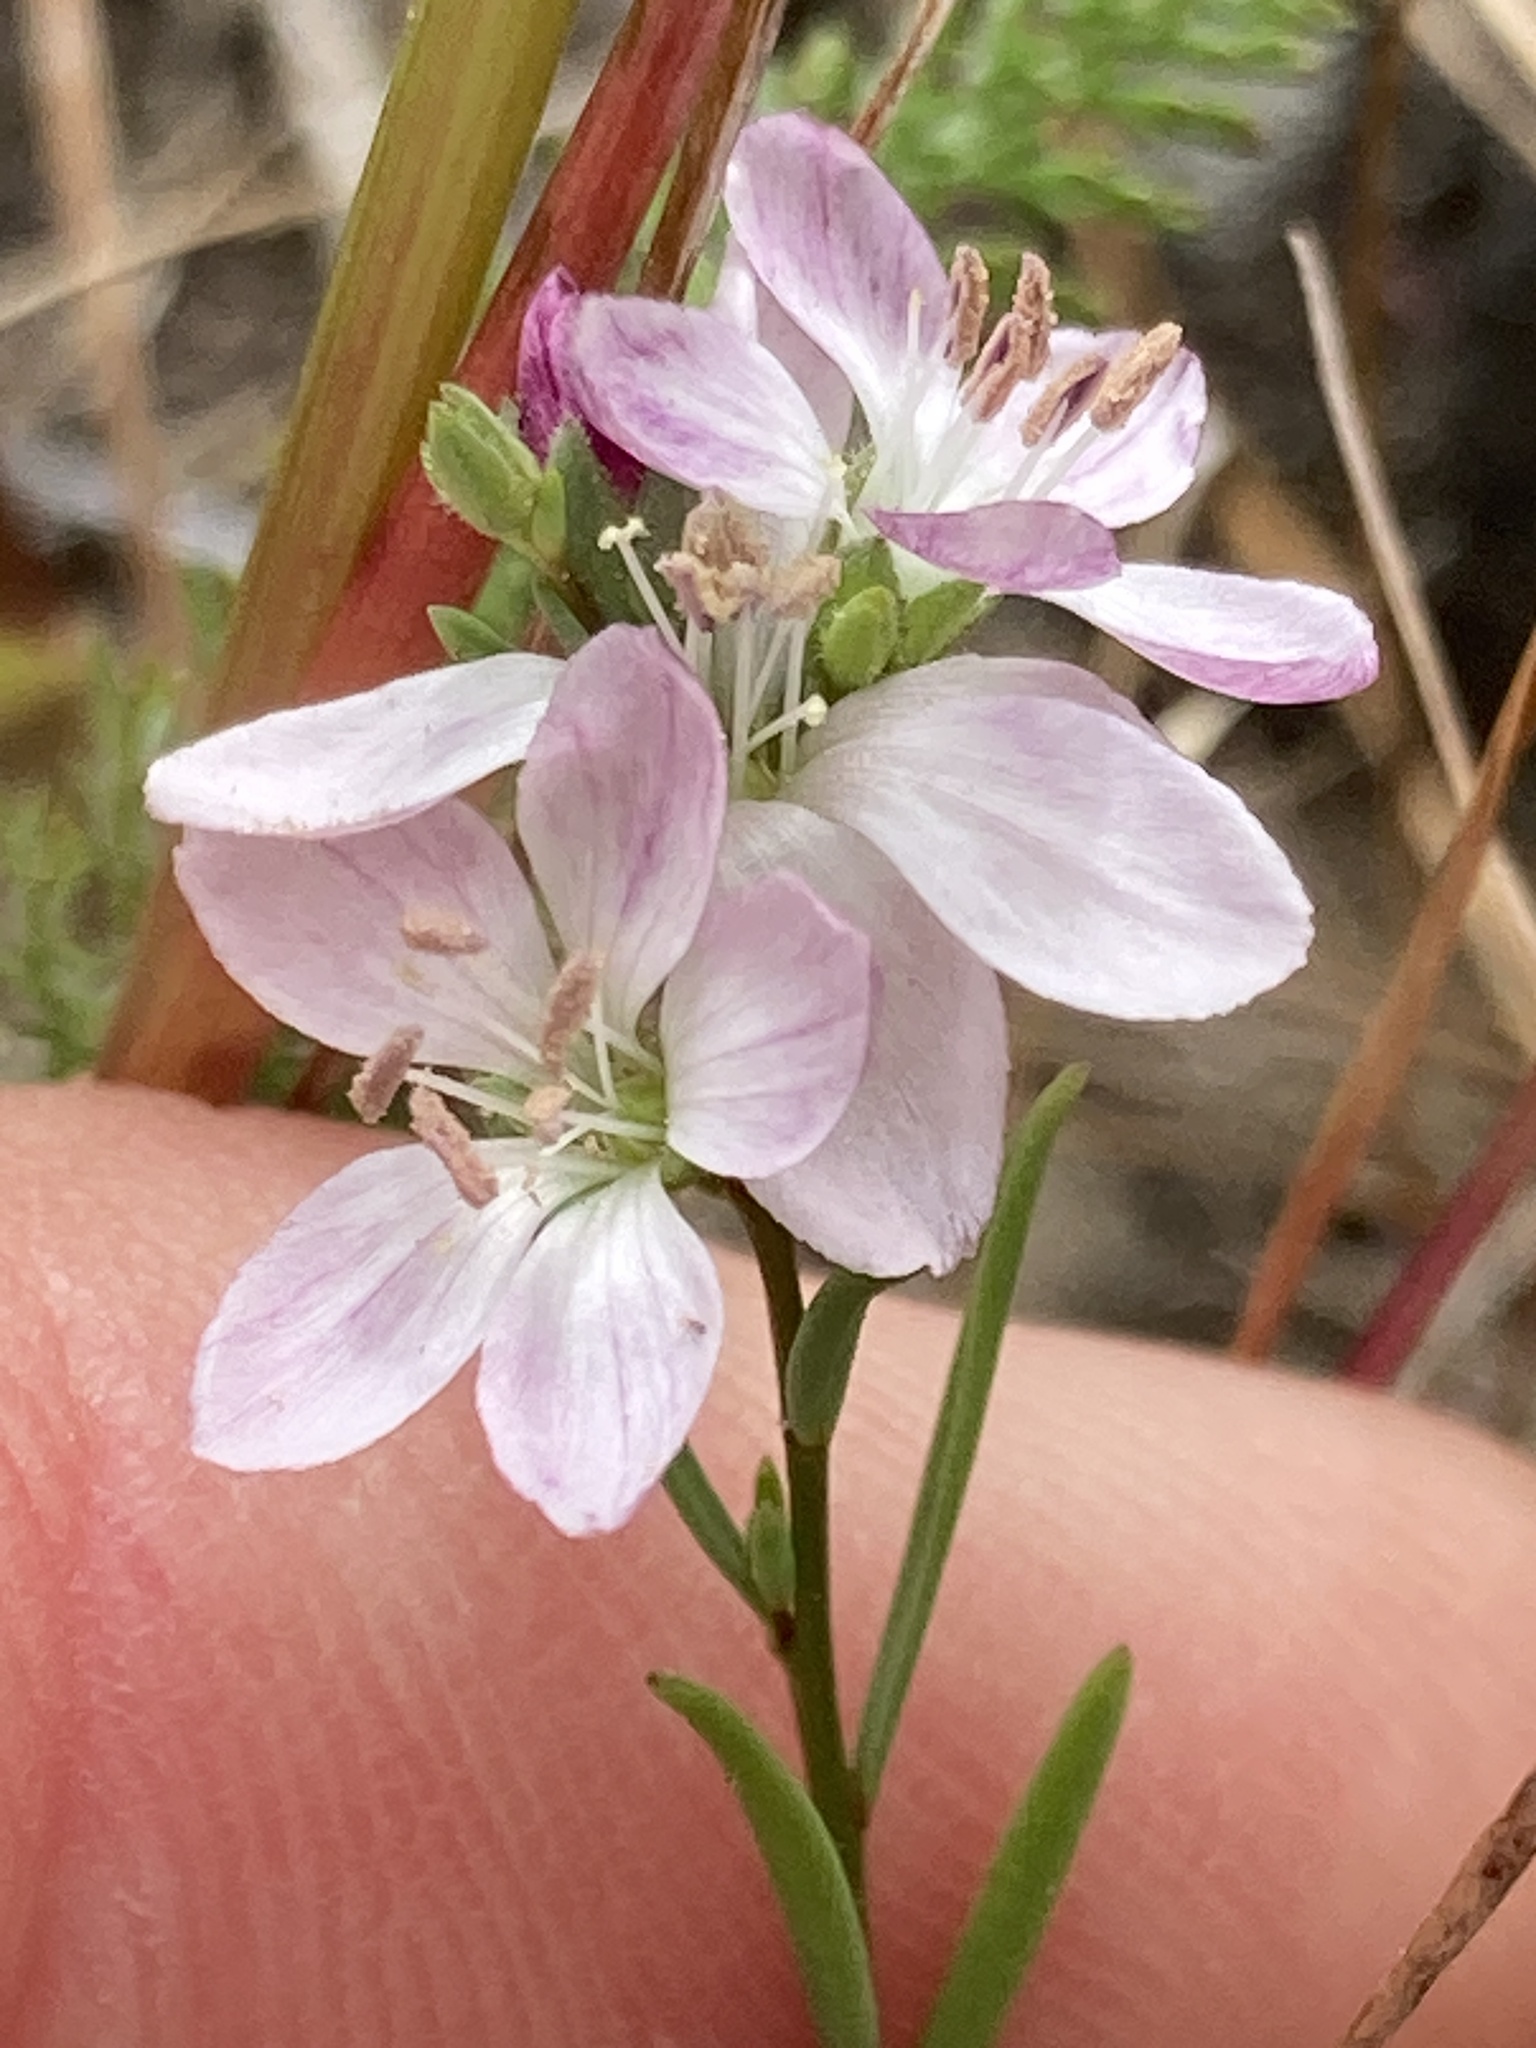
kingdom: Plantae
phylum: Tracheophyta
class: Magnoliopsida
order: Malpighiales
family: Linaceae
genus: Hesperolinon
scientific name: Hesperolinon congestum
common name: Marin dwarf-flax
